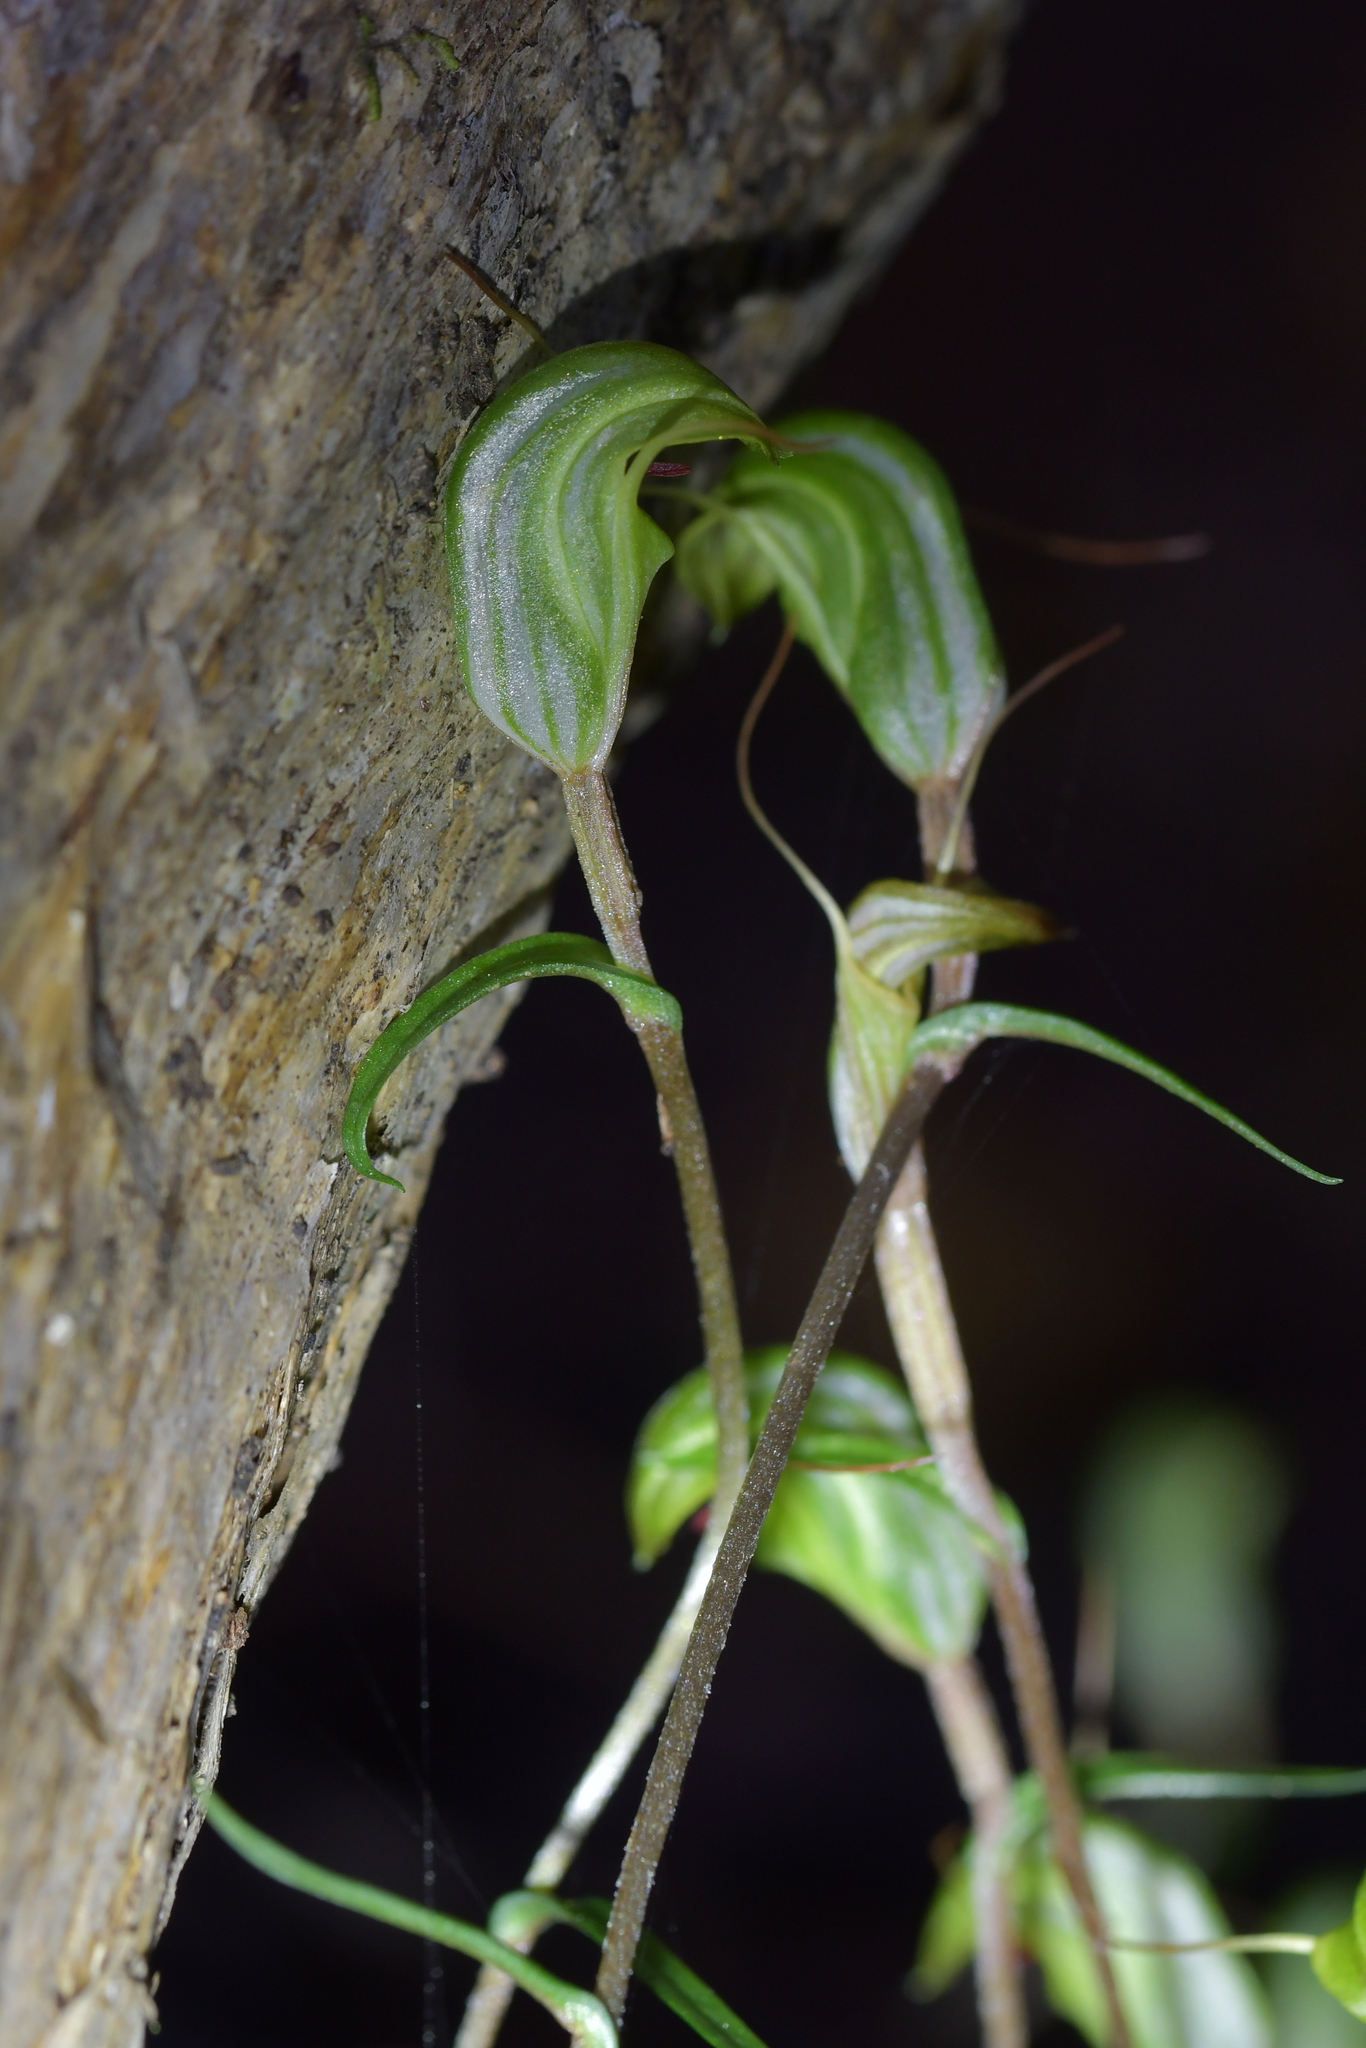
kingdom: Plantae
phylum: Tracheophyta
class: Liliopsida
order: Asparagales
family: Orchidaceae
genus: Pterostylis
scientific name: Pterostylis trullifolia
